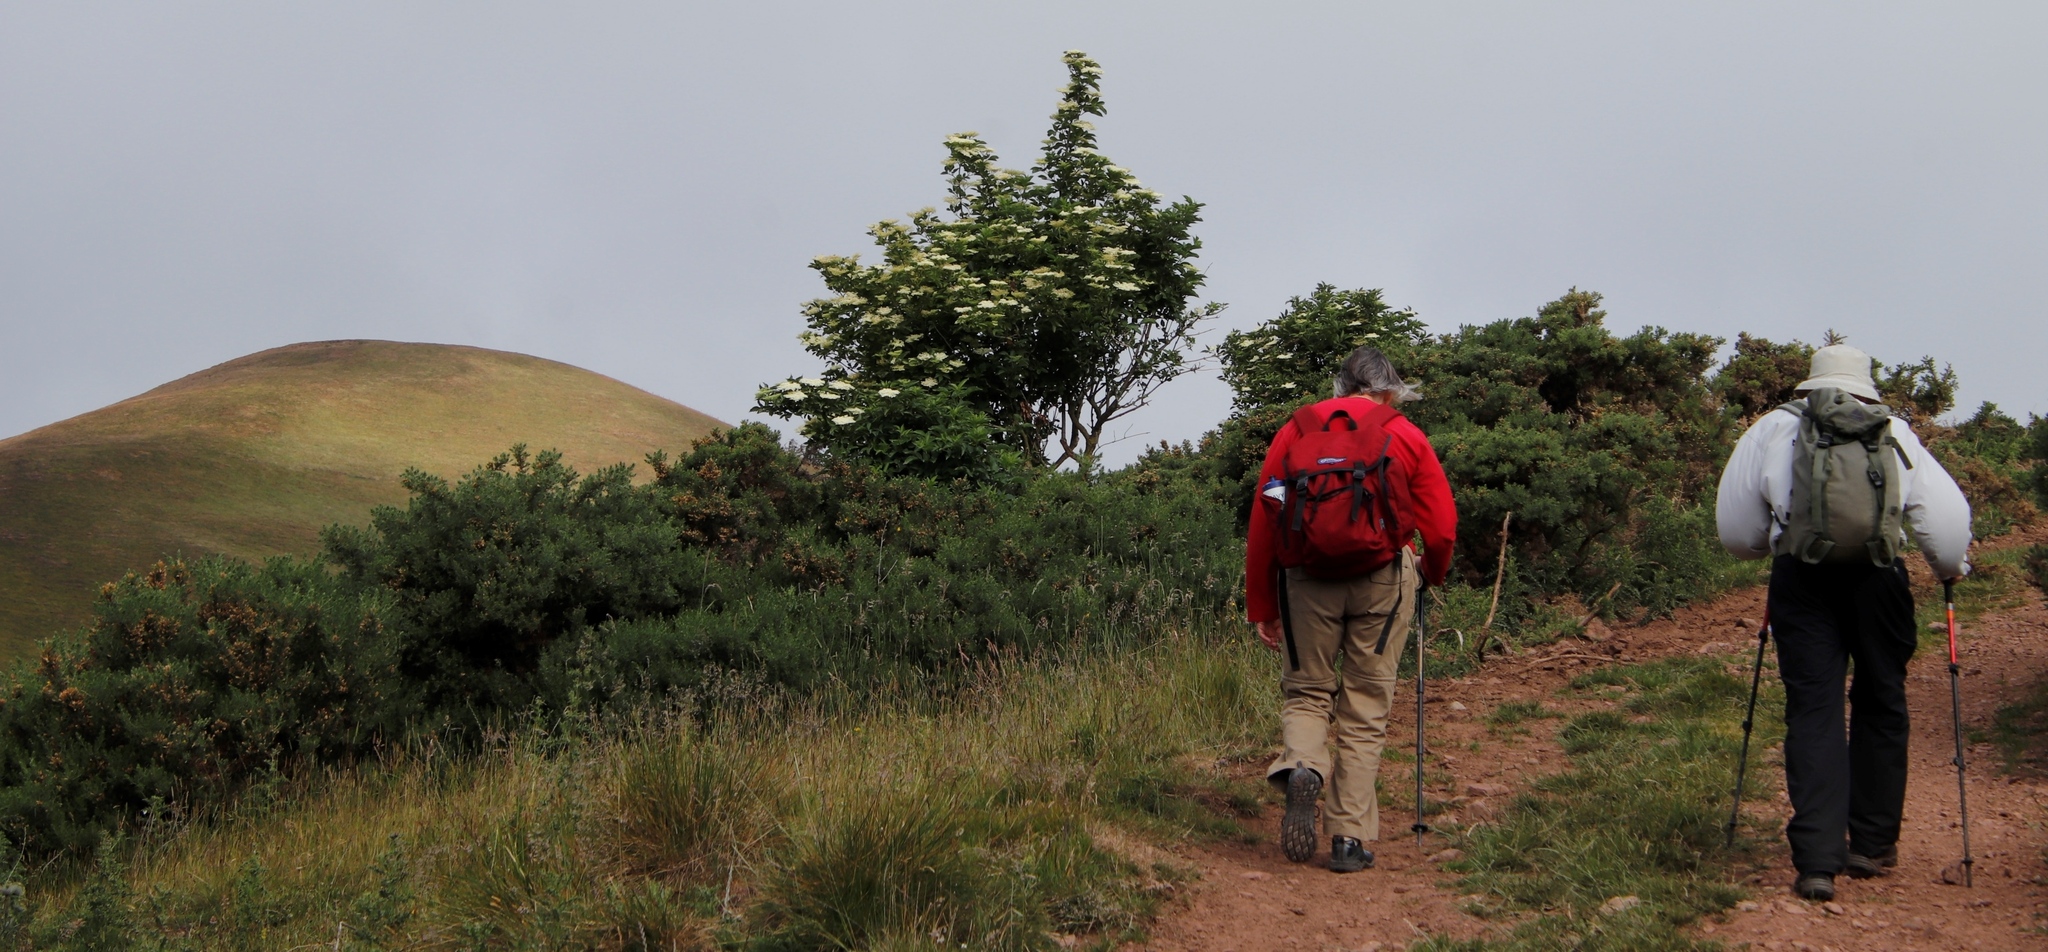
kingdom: Plantae
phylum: Tracheophyta
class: Magnoliopsida
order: Dipsacales
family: Viburnaceae
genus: Sambucus
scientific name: Sambucus nigra
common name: Elder
